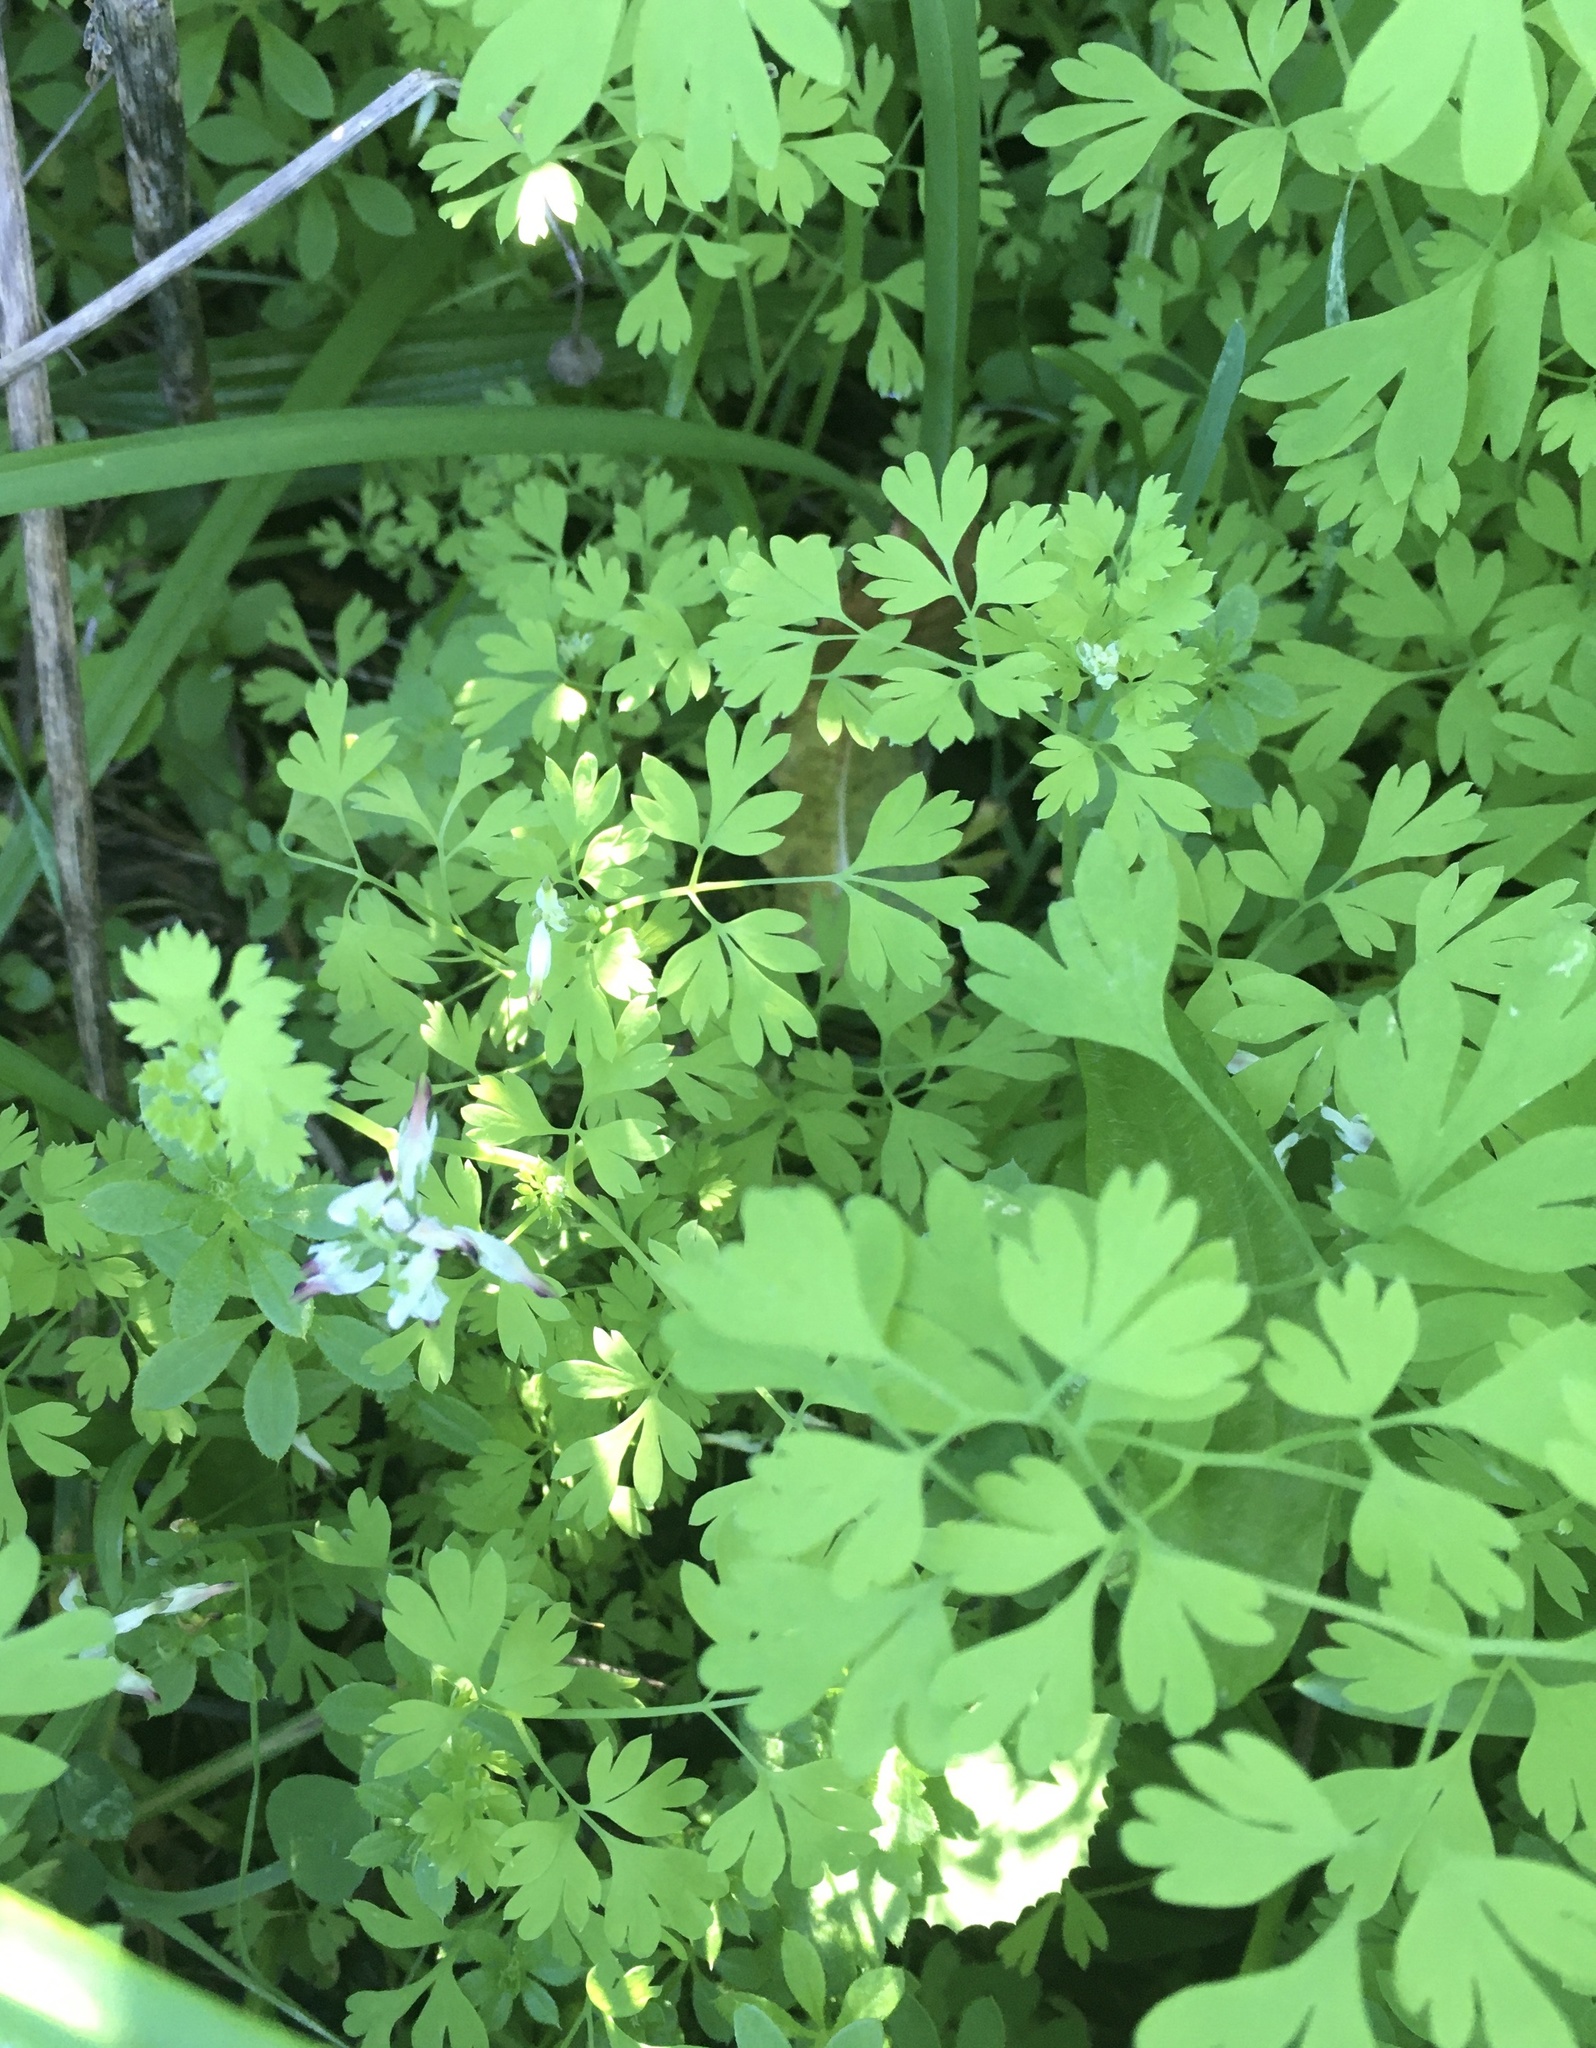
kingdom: Plantae
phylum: Tracheophyta
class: Magnoliopsida
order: Ranunculales
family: Papaveraceae
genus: Fumaria
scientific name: Fumaria capreolata
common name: White ramping-fumitory
